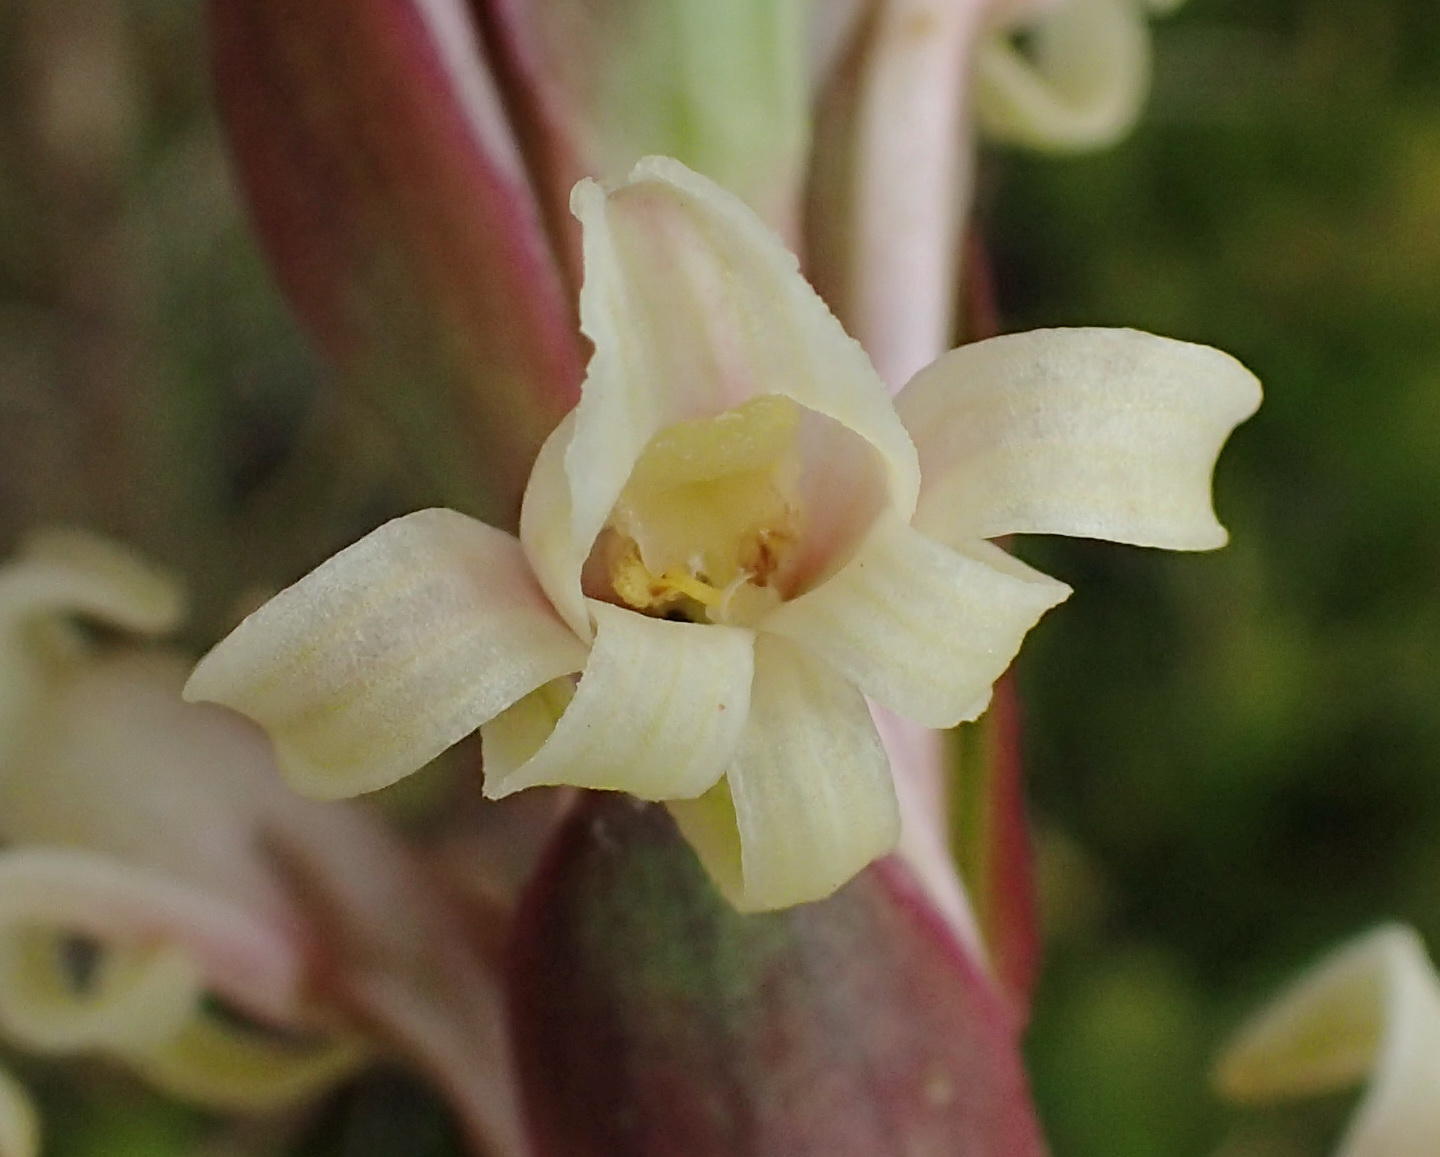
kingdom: Plantae
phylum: Tracheophyta
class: Liliopsida
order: Asparagales
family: Orchidaceae
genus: Satyrium
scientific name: Satyrium stenopetalum
